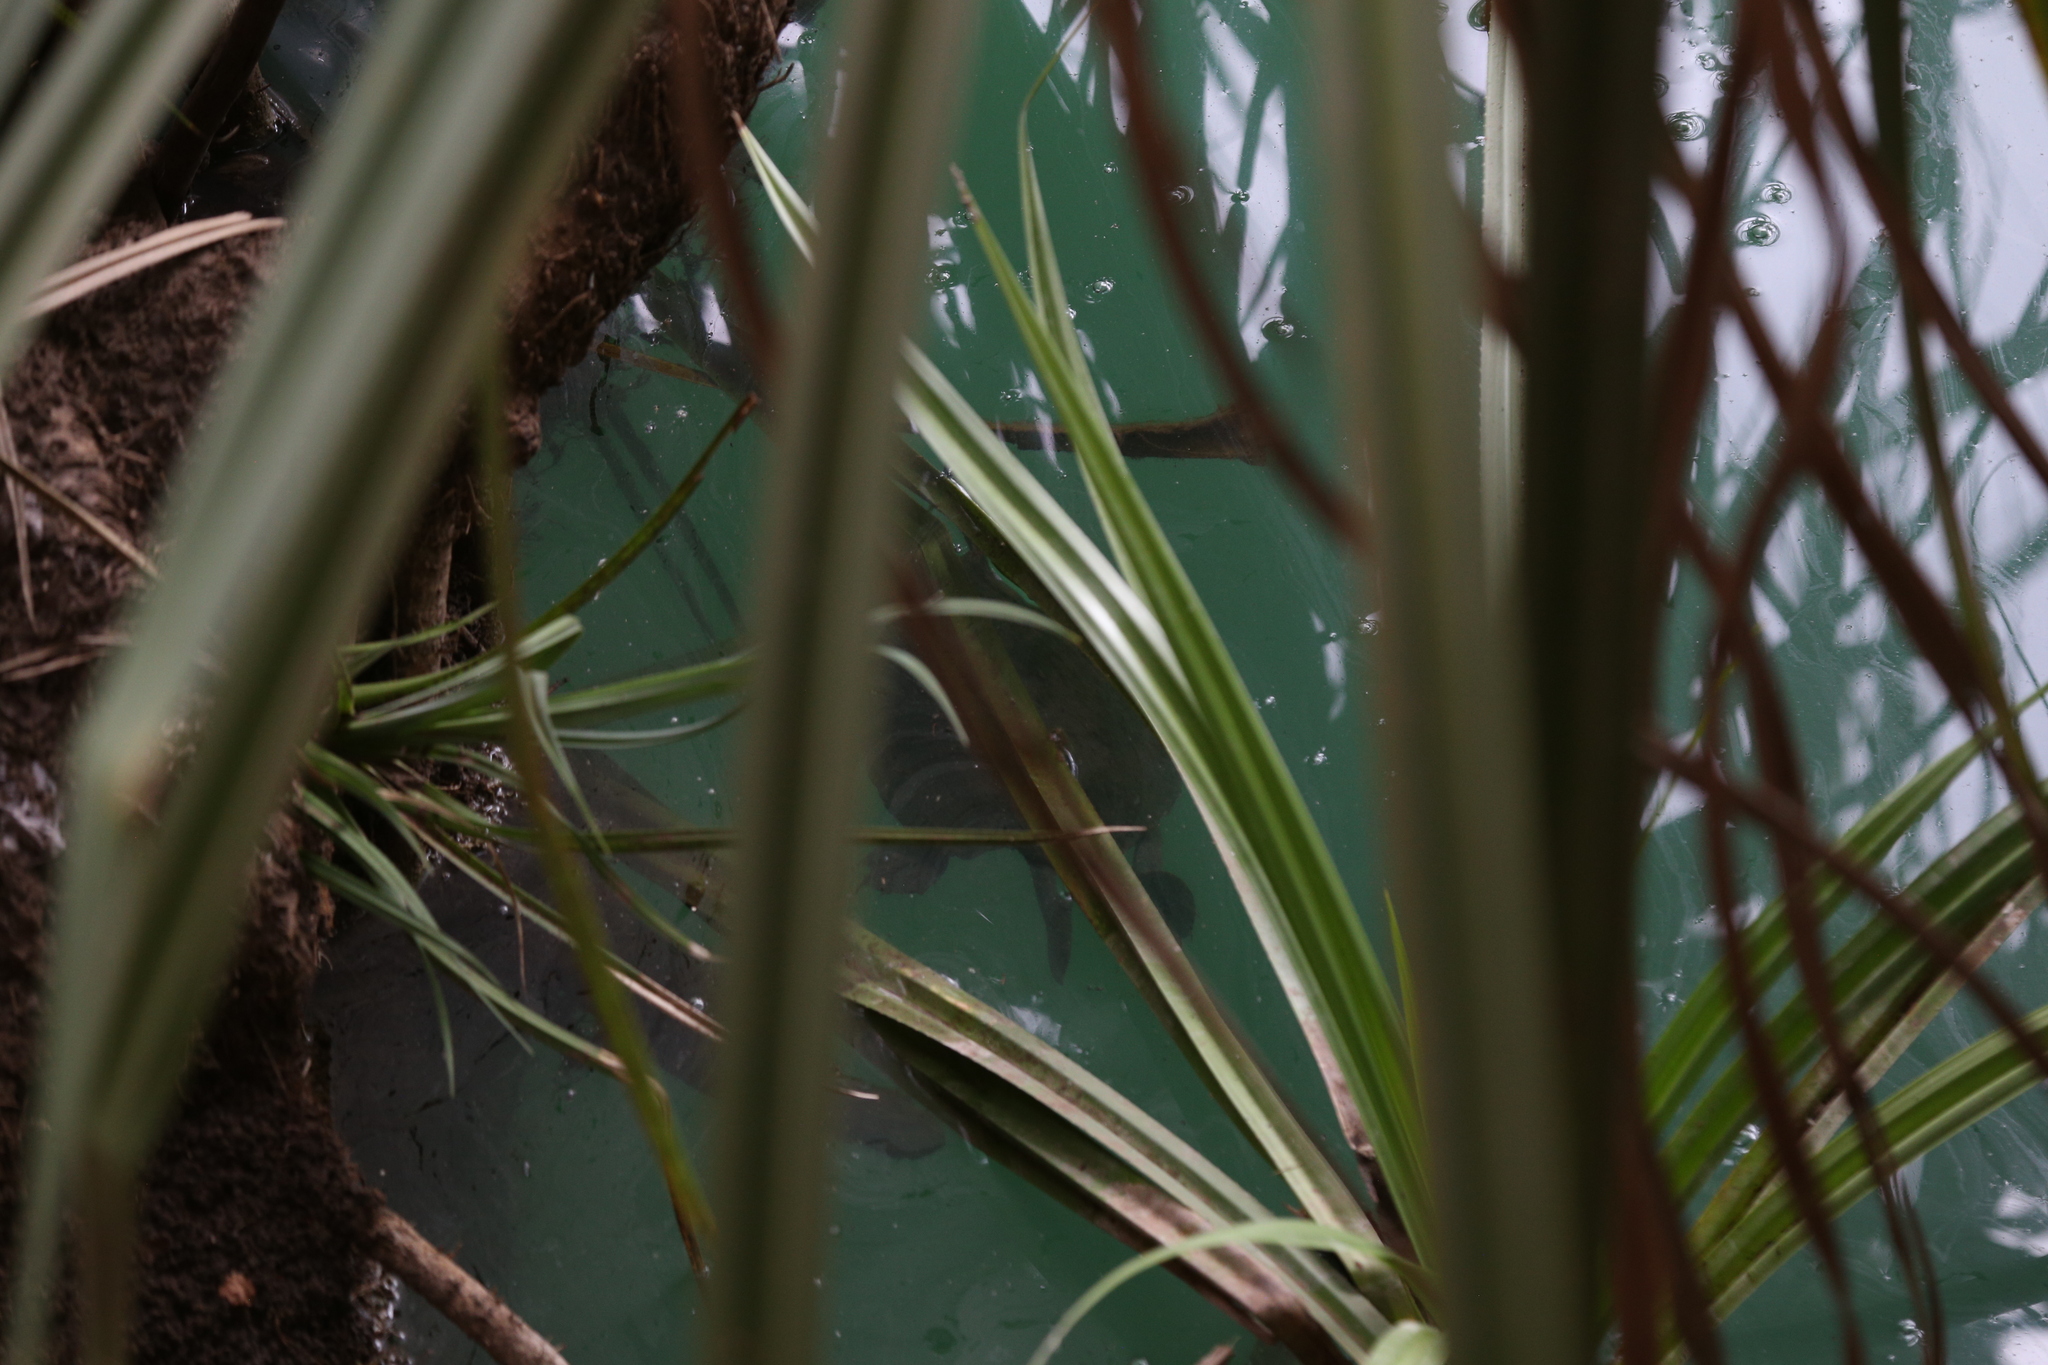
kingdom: Animalia
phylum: Chordata
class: Testudines
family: Chelidae
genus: Elseya
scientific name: Elseya lavarackorum
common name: Gulf snapping turtle
